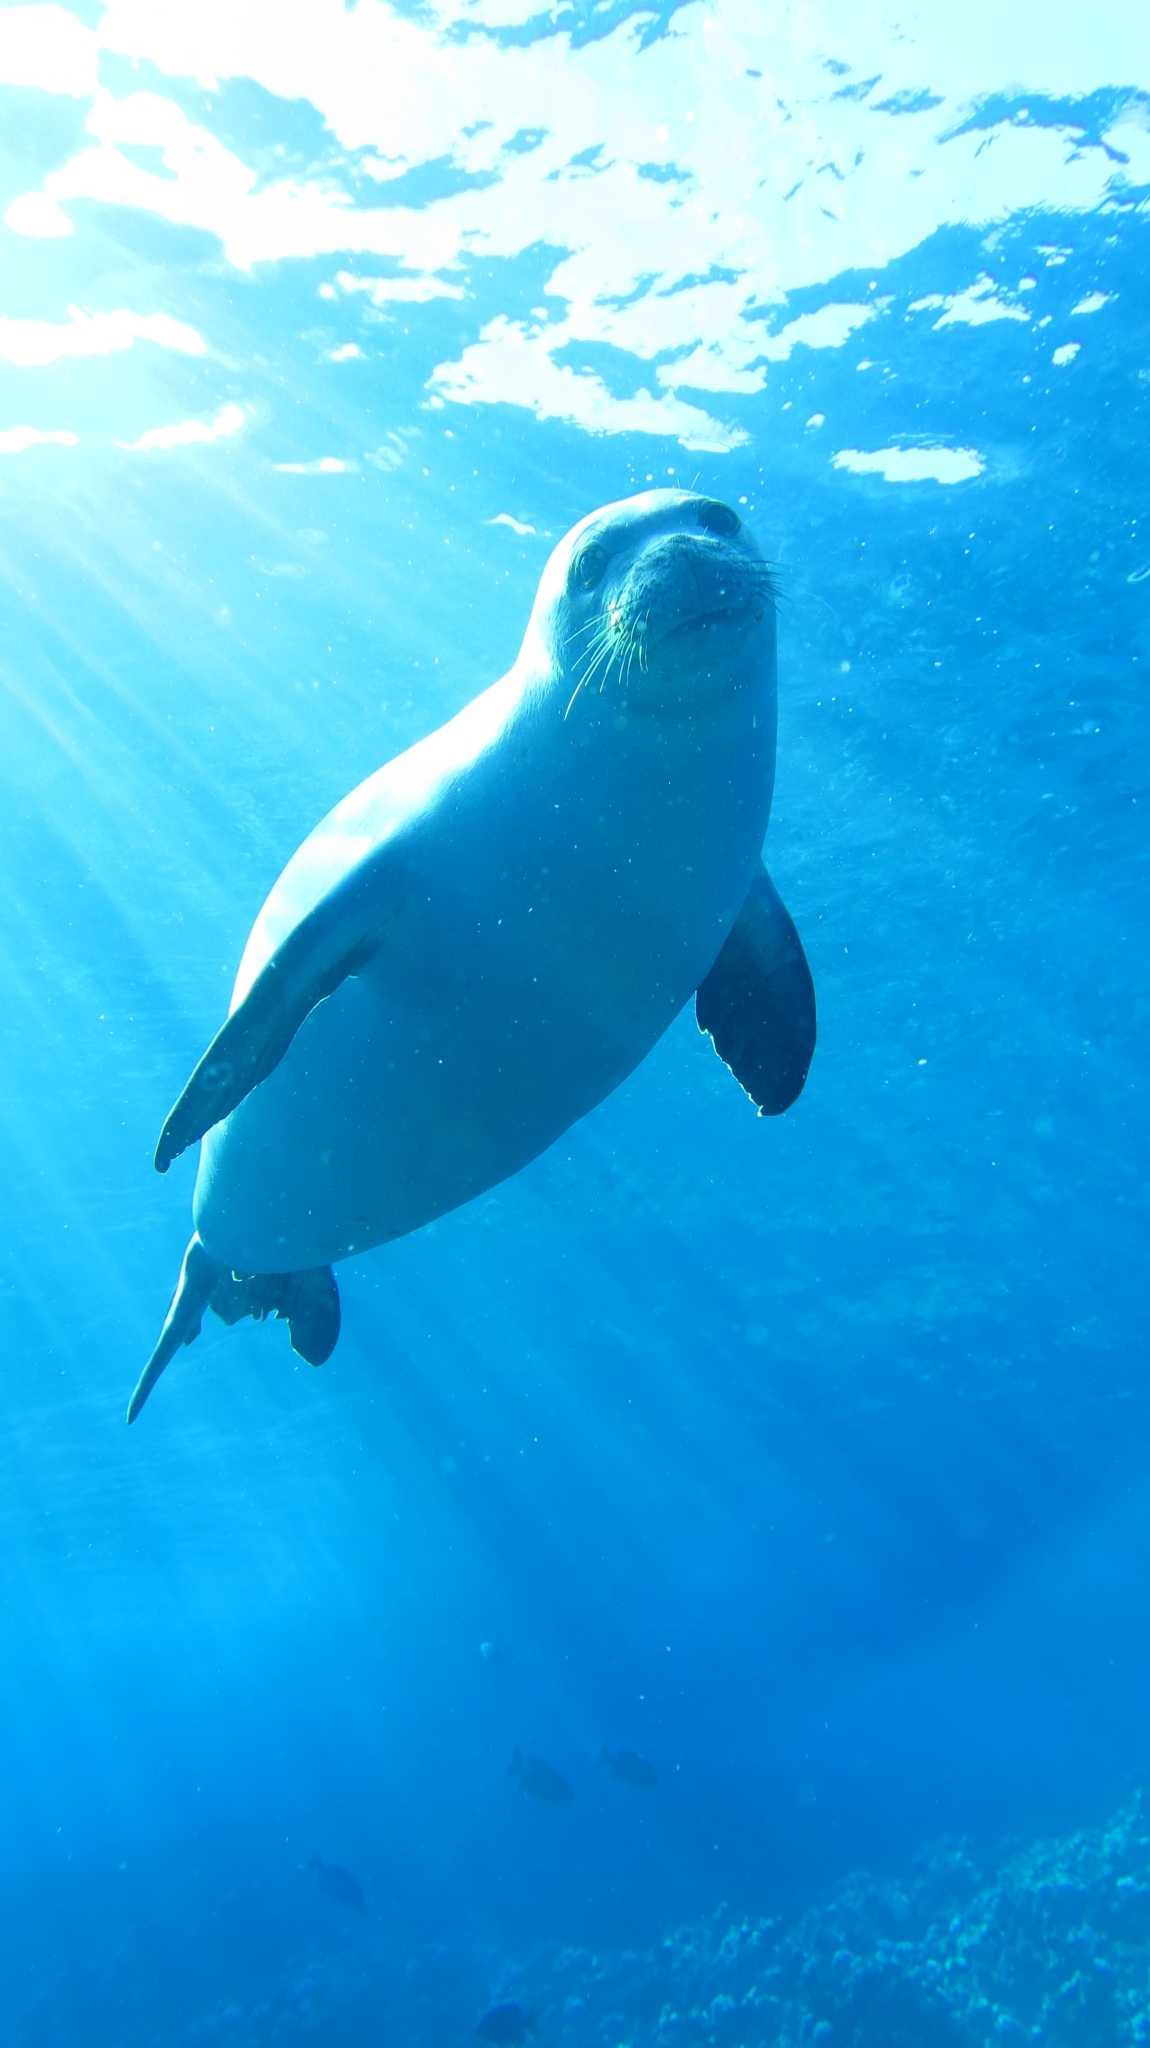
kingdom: Animalia
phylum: Chordata
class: Mammalia
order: Carnivora
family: Phocidae
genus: Neomonachus
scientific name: Neomonachus schauinslandi
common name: Hawaiian monk seal
